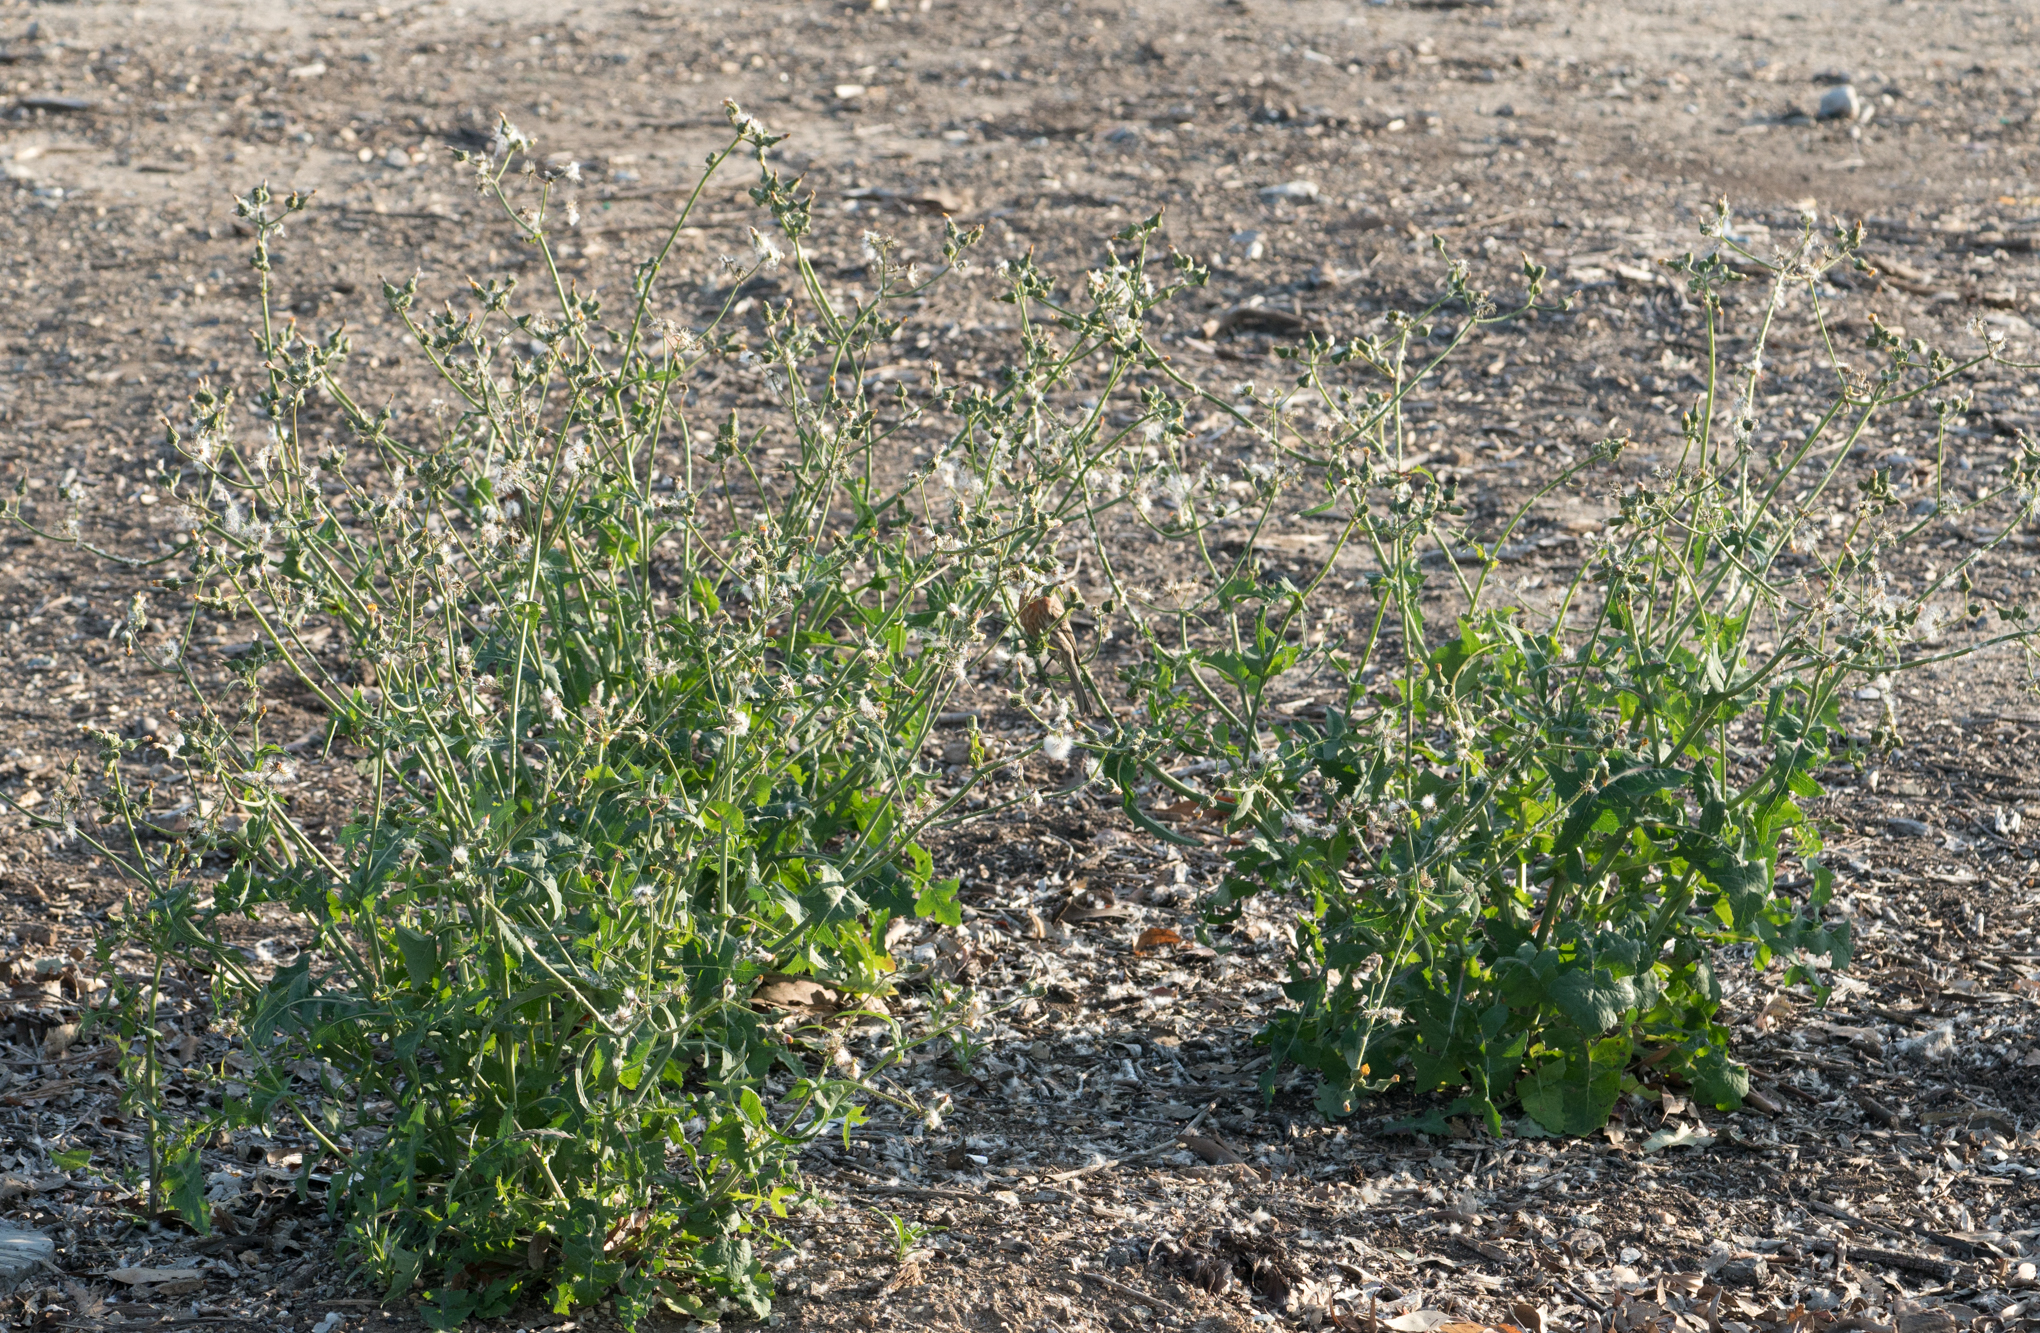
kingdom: Plantae
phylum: Tracheophyta
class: Magnoliopsida
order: Asterales
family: Asteraceae
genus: Sonchus
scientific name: Sonchus oleraceus
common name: Common sowthistle
